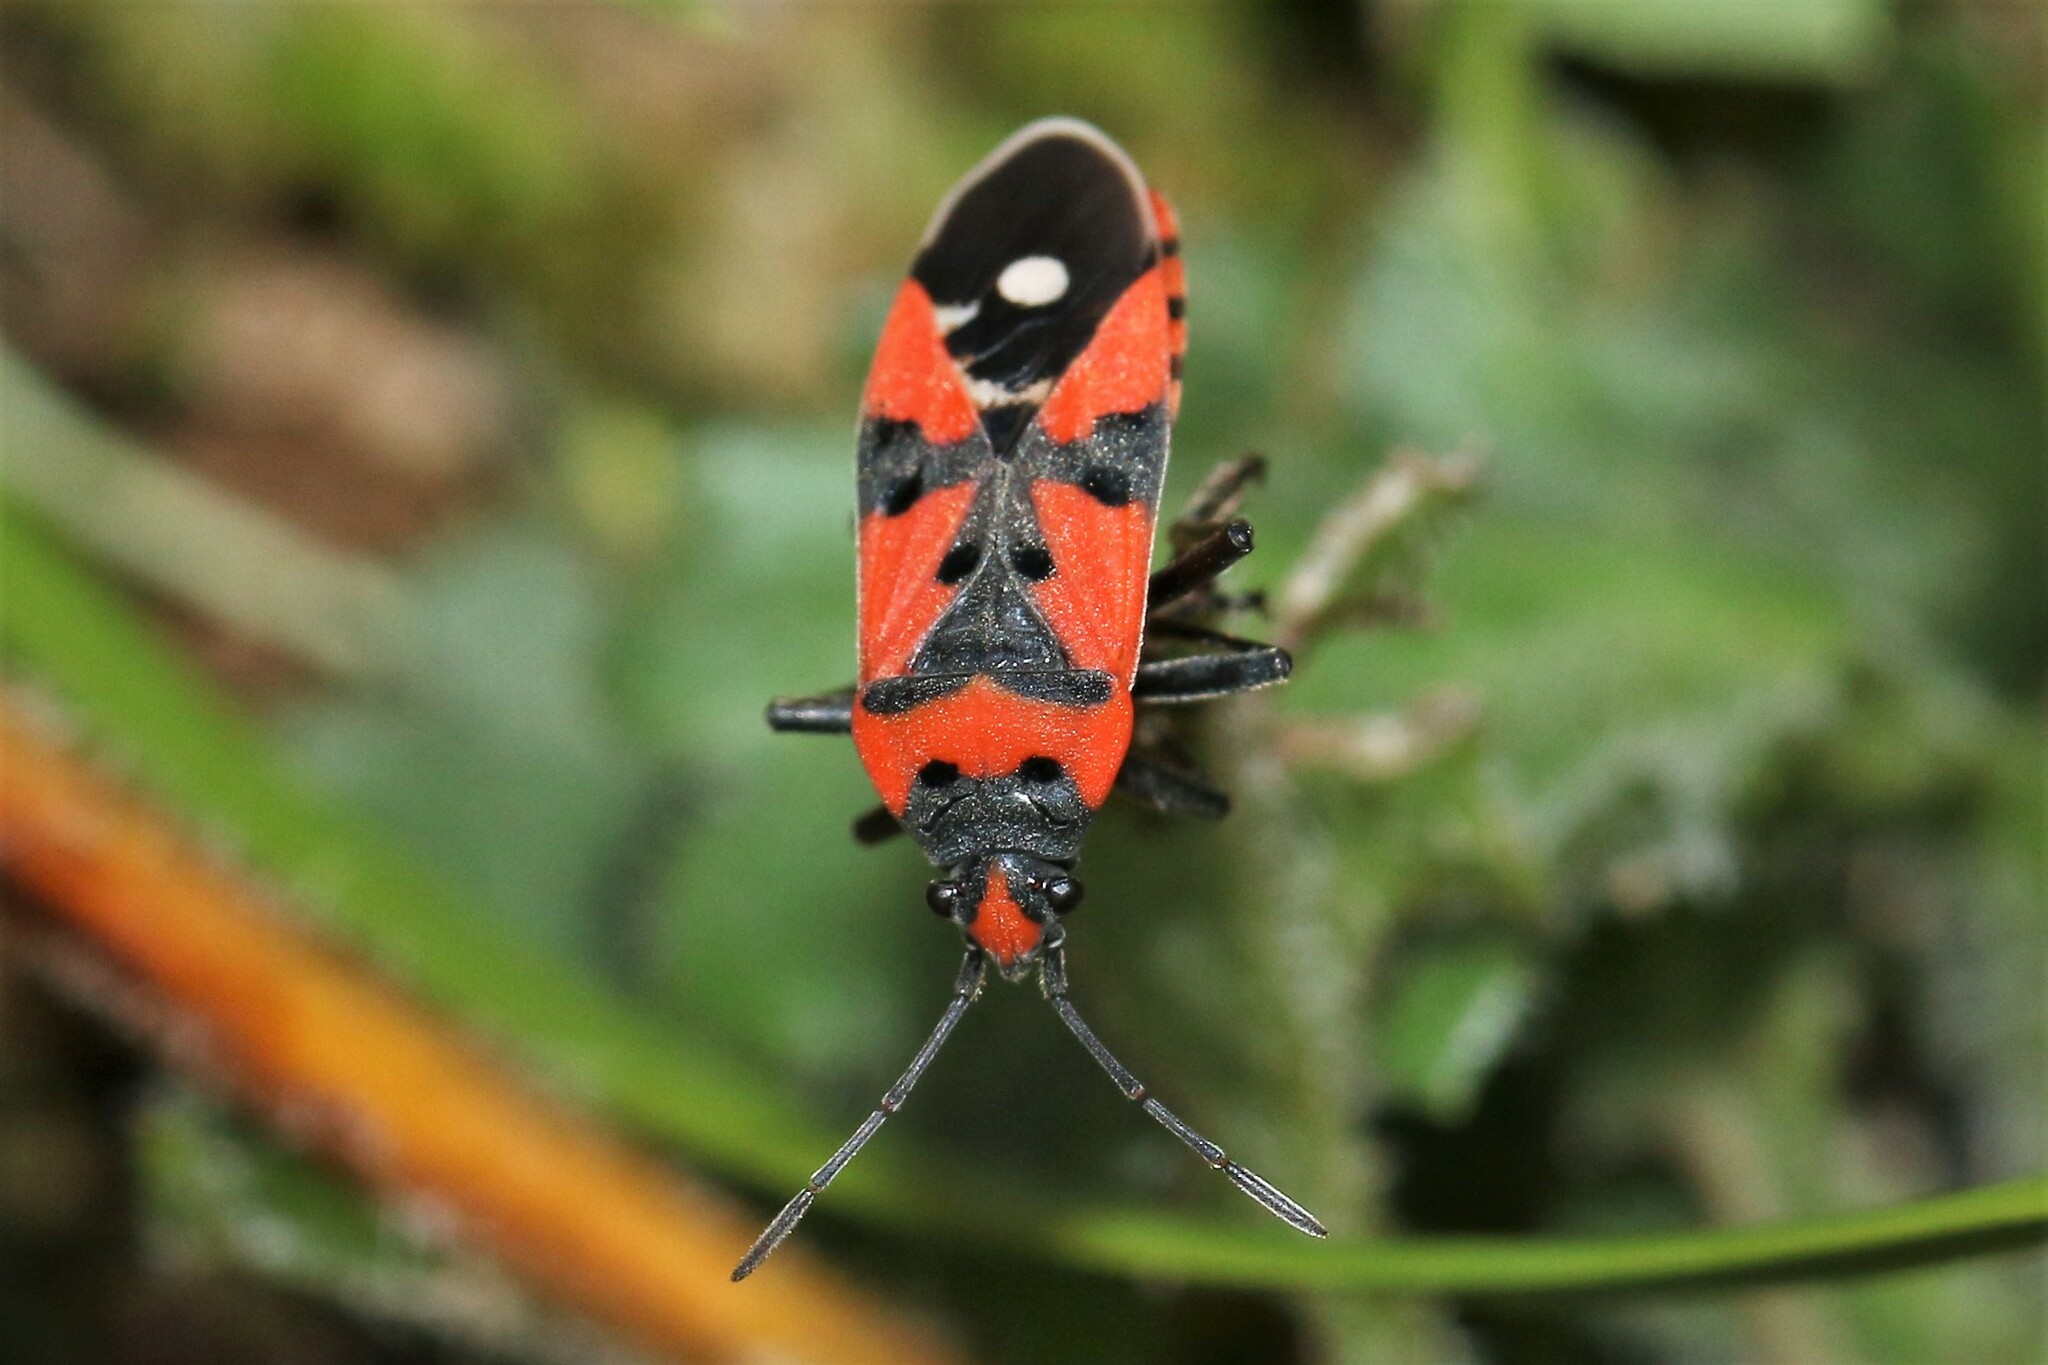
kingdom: Animalia
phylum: Arthropoda
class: Insecta
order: Hemiptera
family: Lygaeidae
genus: Lygaeus
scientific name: Lygaeus
